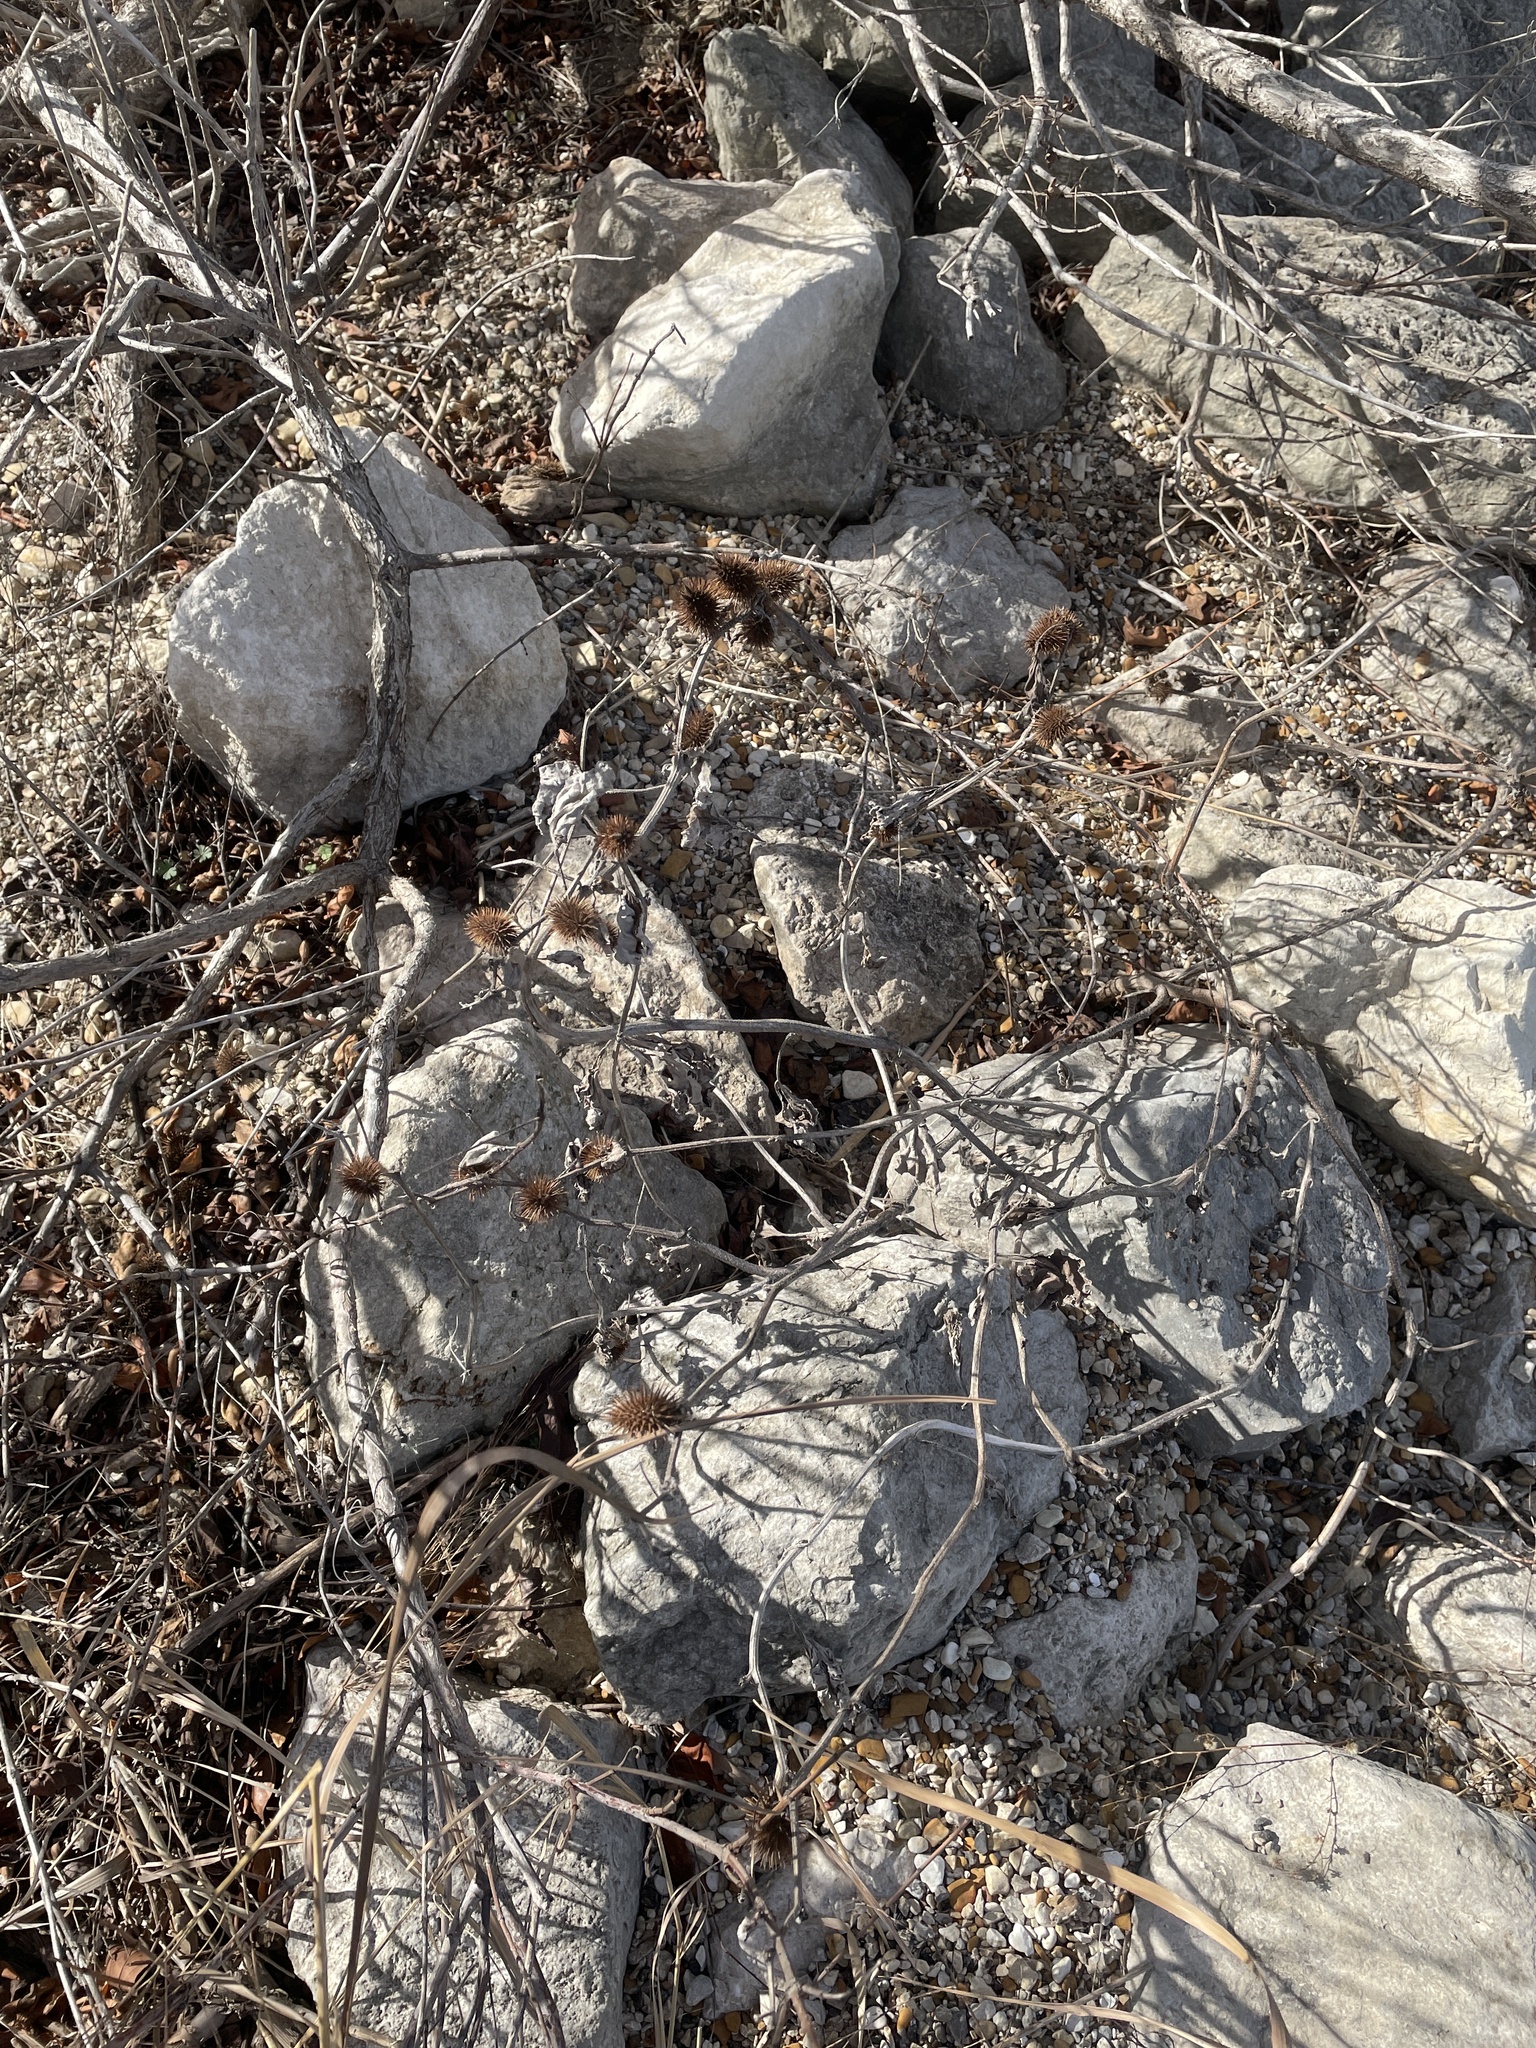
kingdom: Plantae
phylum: Tracheophyta
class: Magnoliopsida
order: Asterales
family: Asteraceae
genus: Xanthium
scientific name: Xanthium strumarium
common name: Rough cocklebur
